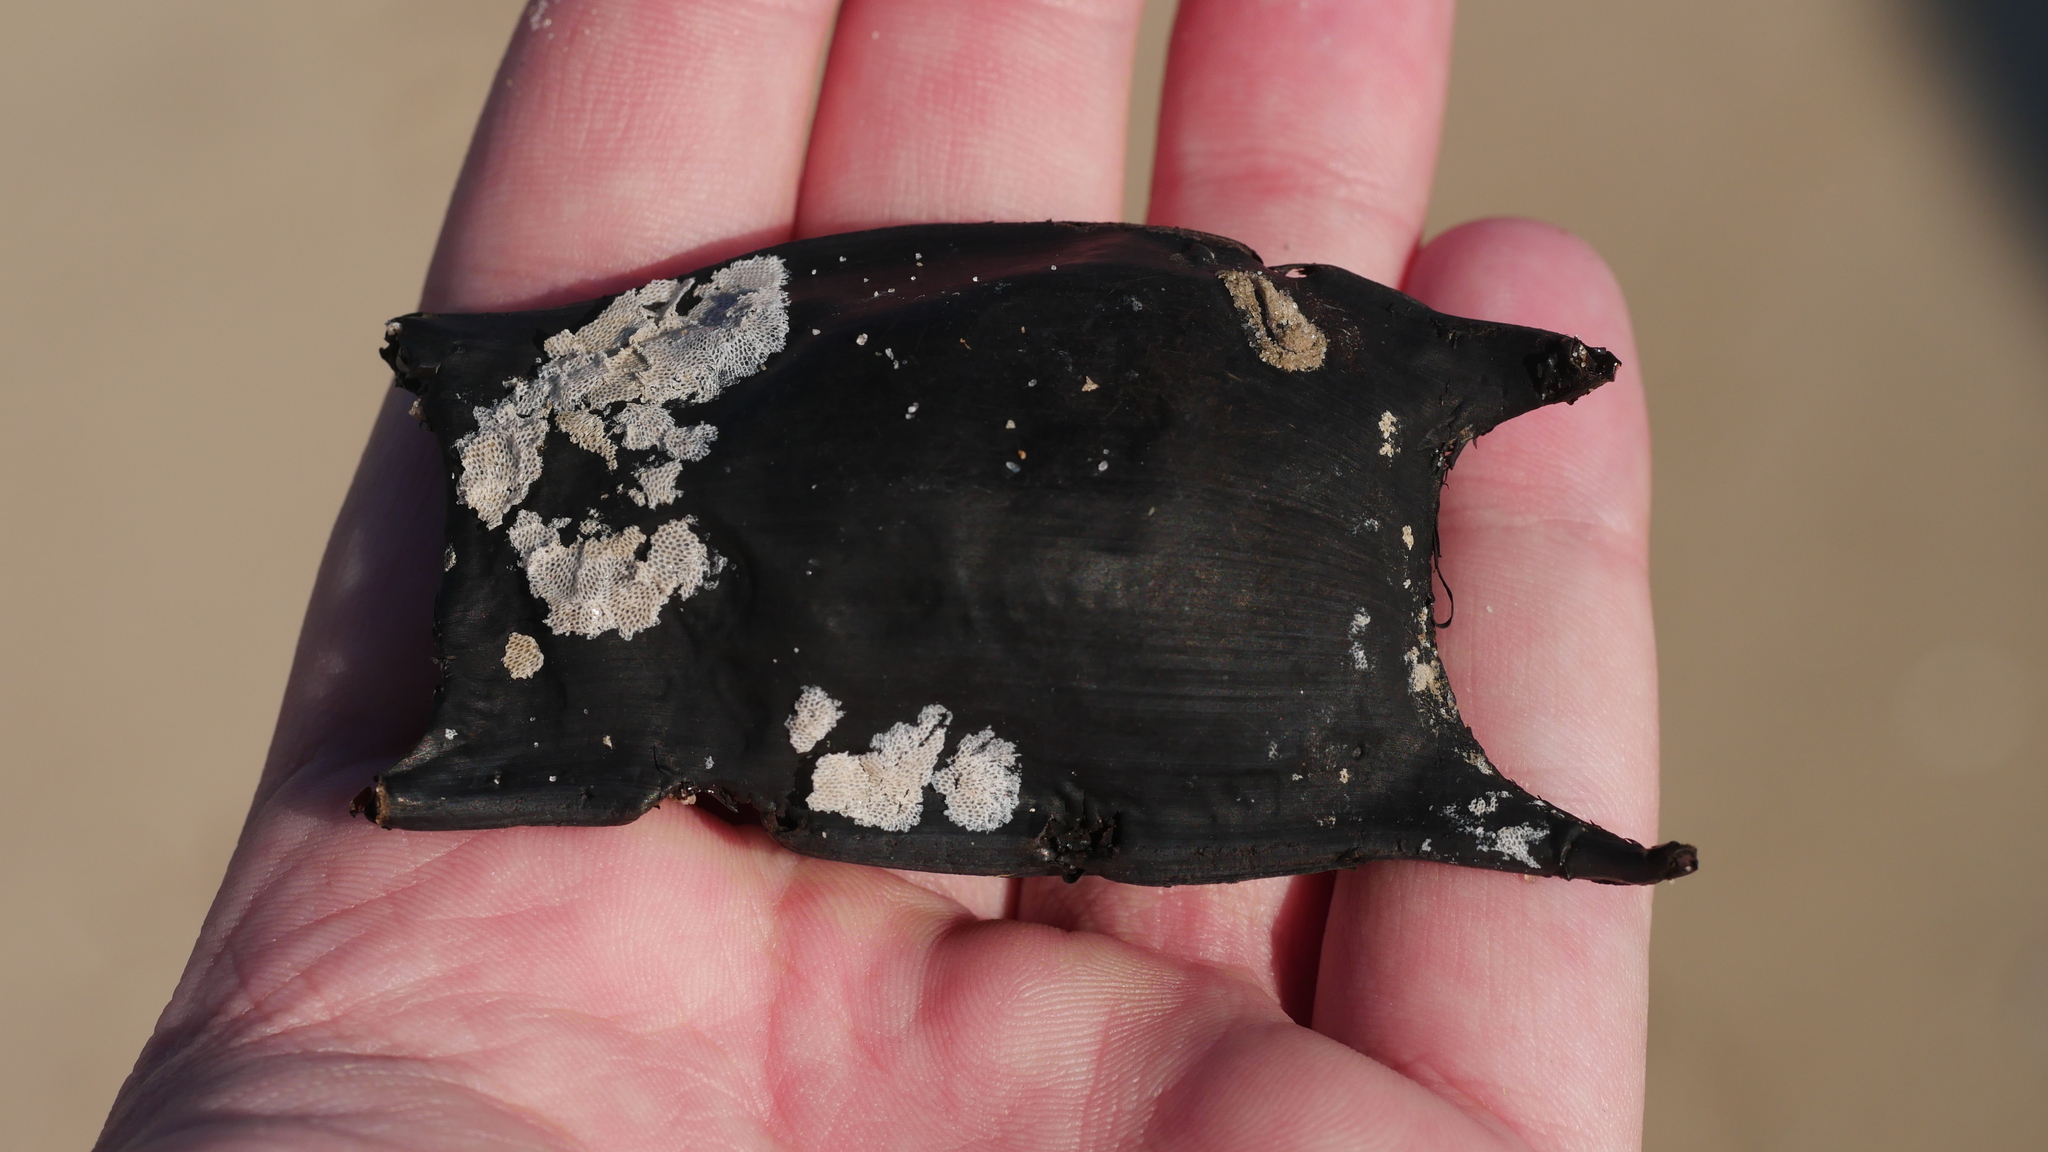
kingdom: Animalia
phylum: Chordata
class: Elasmobranchii
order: Rajiformes
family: Rajidae
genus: Raja
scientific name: Raja eglanteria
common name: Clearnose skate
